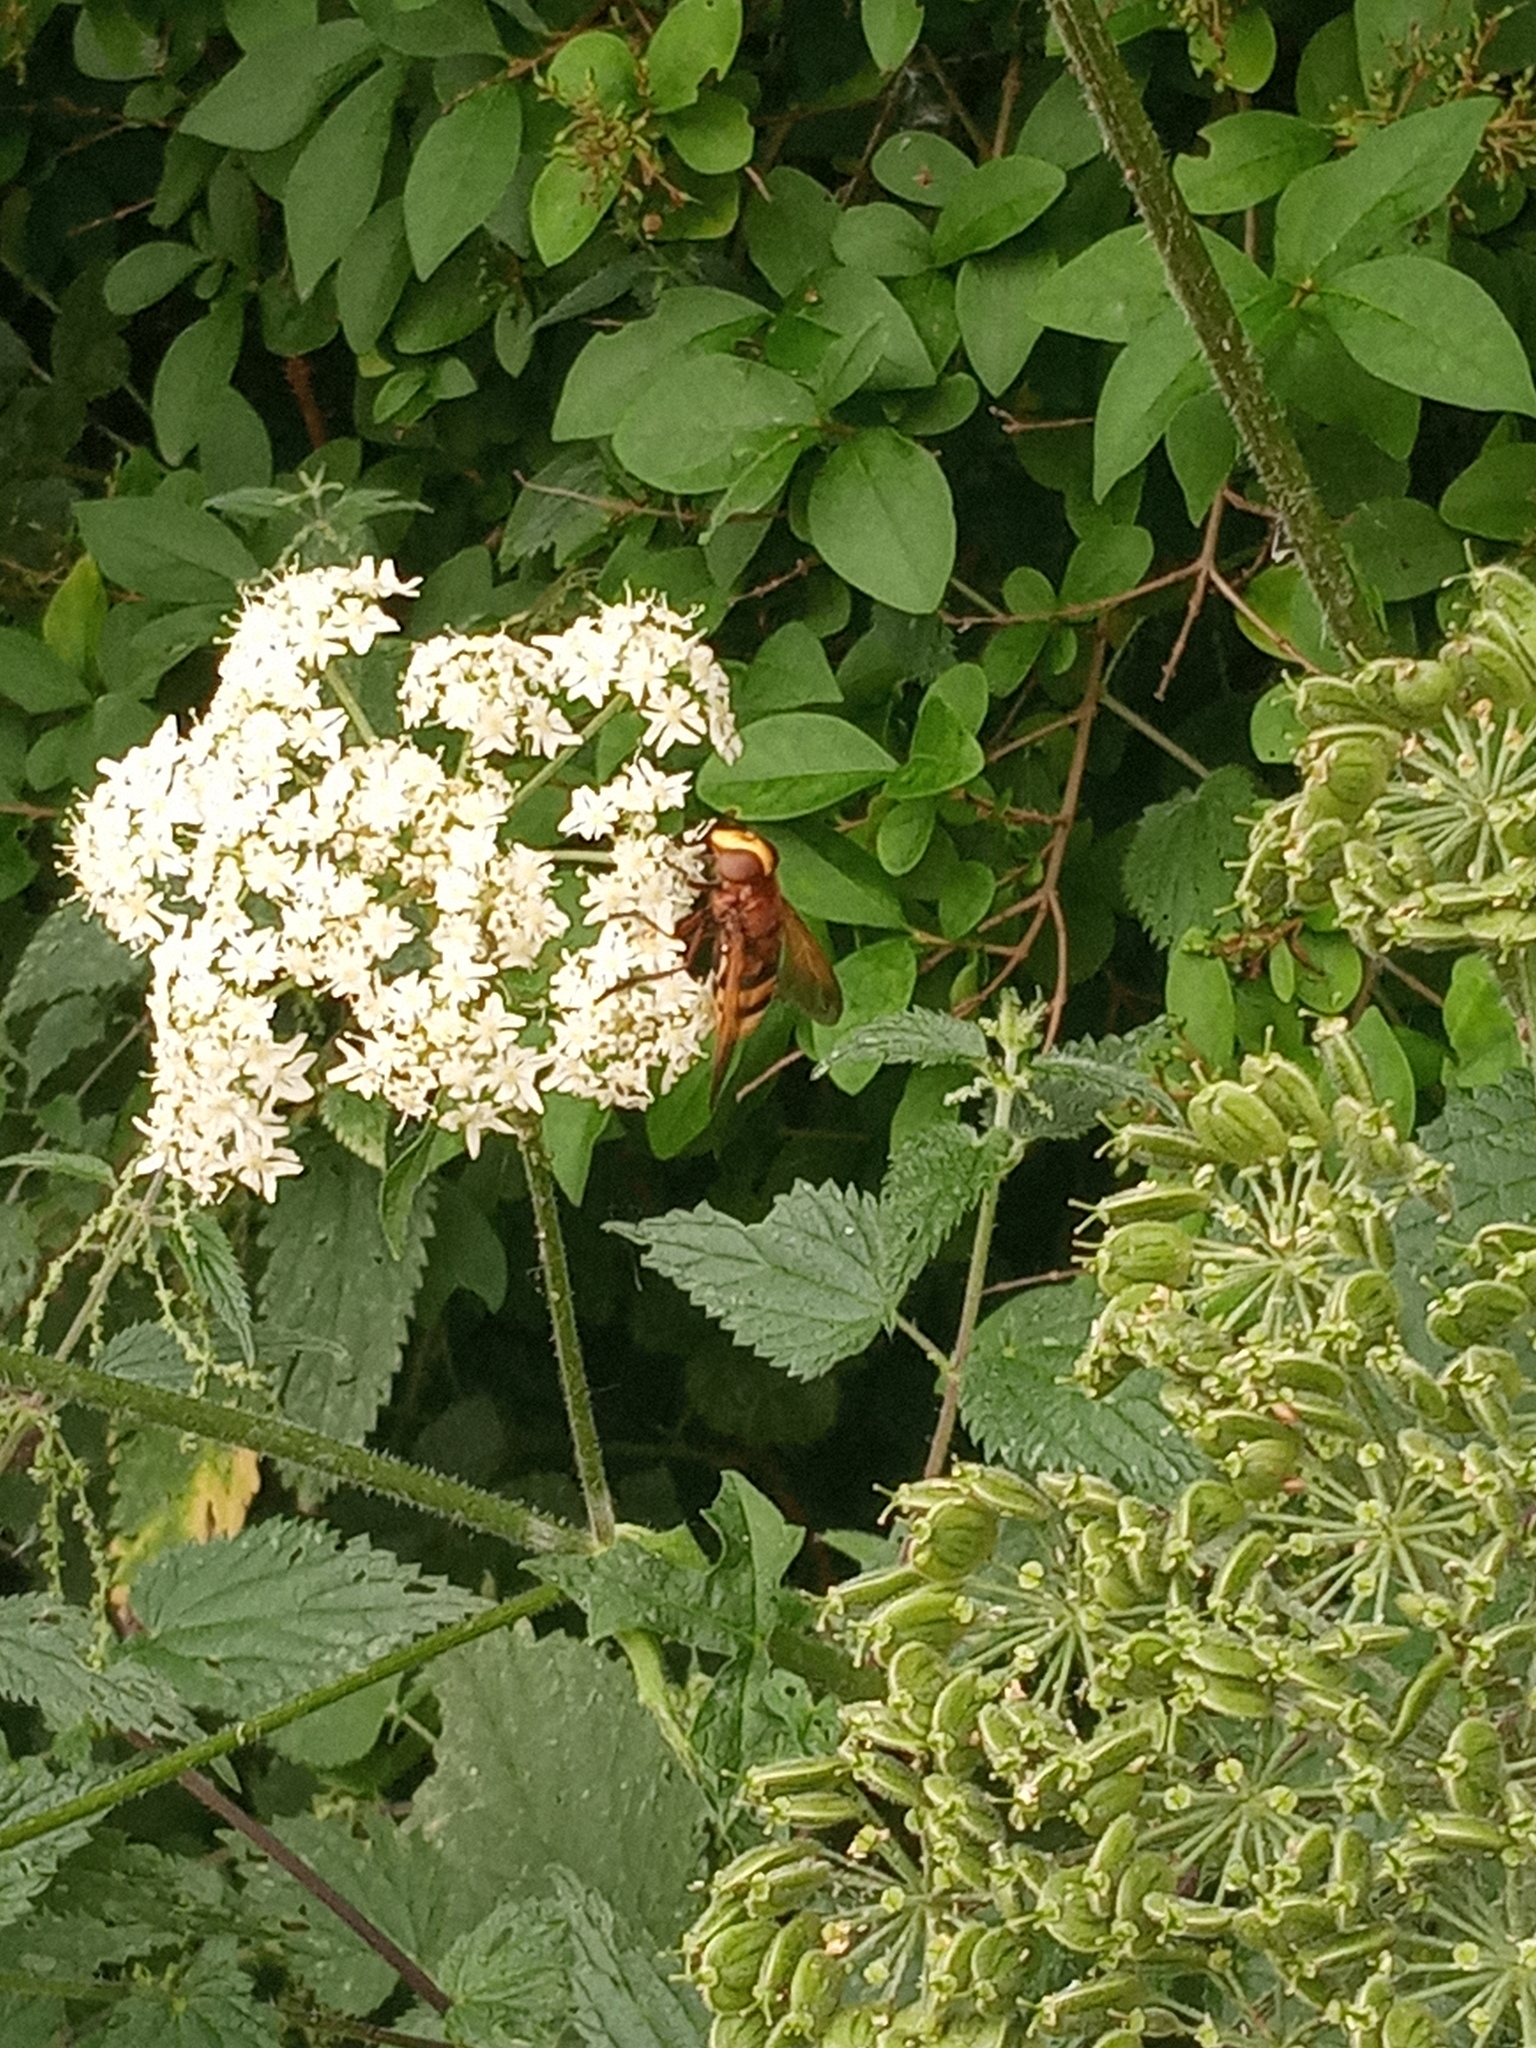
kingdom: Animalia
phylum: Arthropoda
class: Insecta
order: Diptera
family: Syrphidae
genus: Volucella
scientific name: Volucella zonaria
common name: Hornet hoverfly
